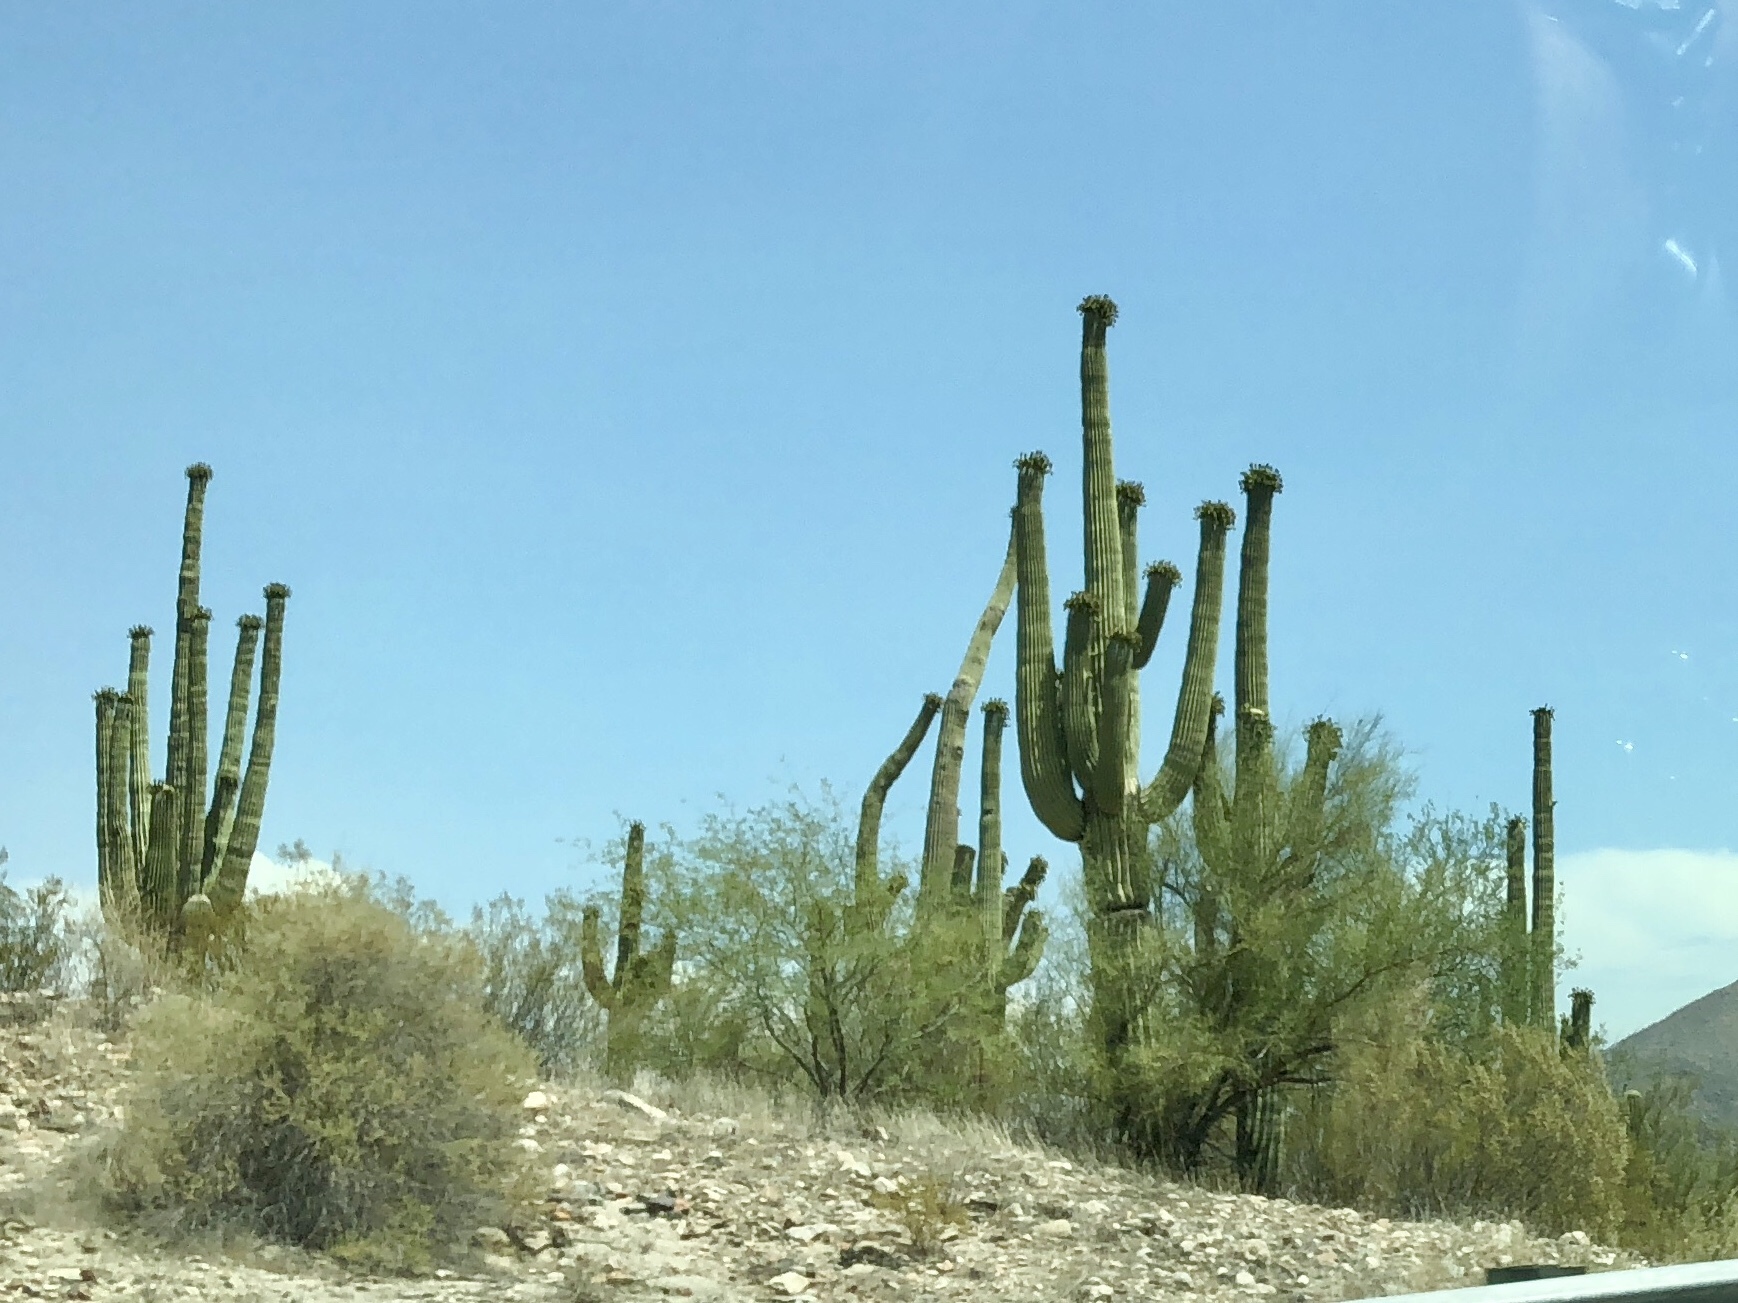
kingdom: Plantae
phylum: Tracheophyta
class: Magnoliopsida
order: Caryophyllales
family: Cactaceae
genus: Carnegiea
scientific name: Carnegiea gigantea
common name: Saguaro
